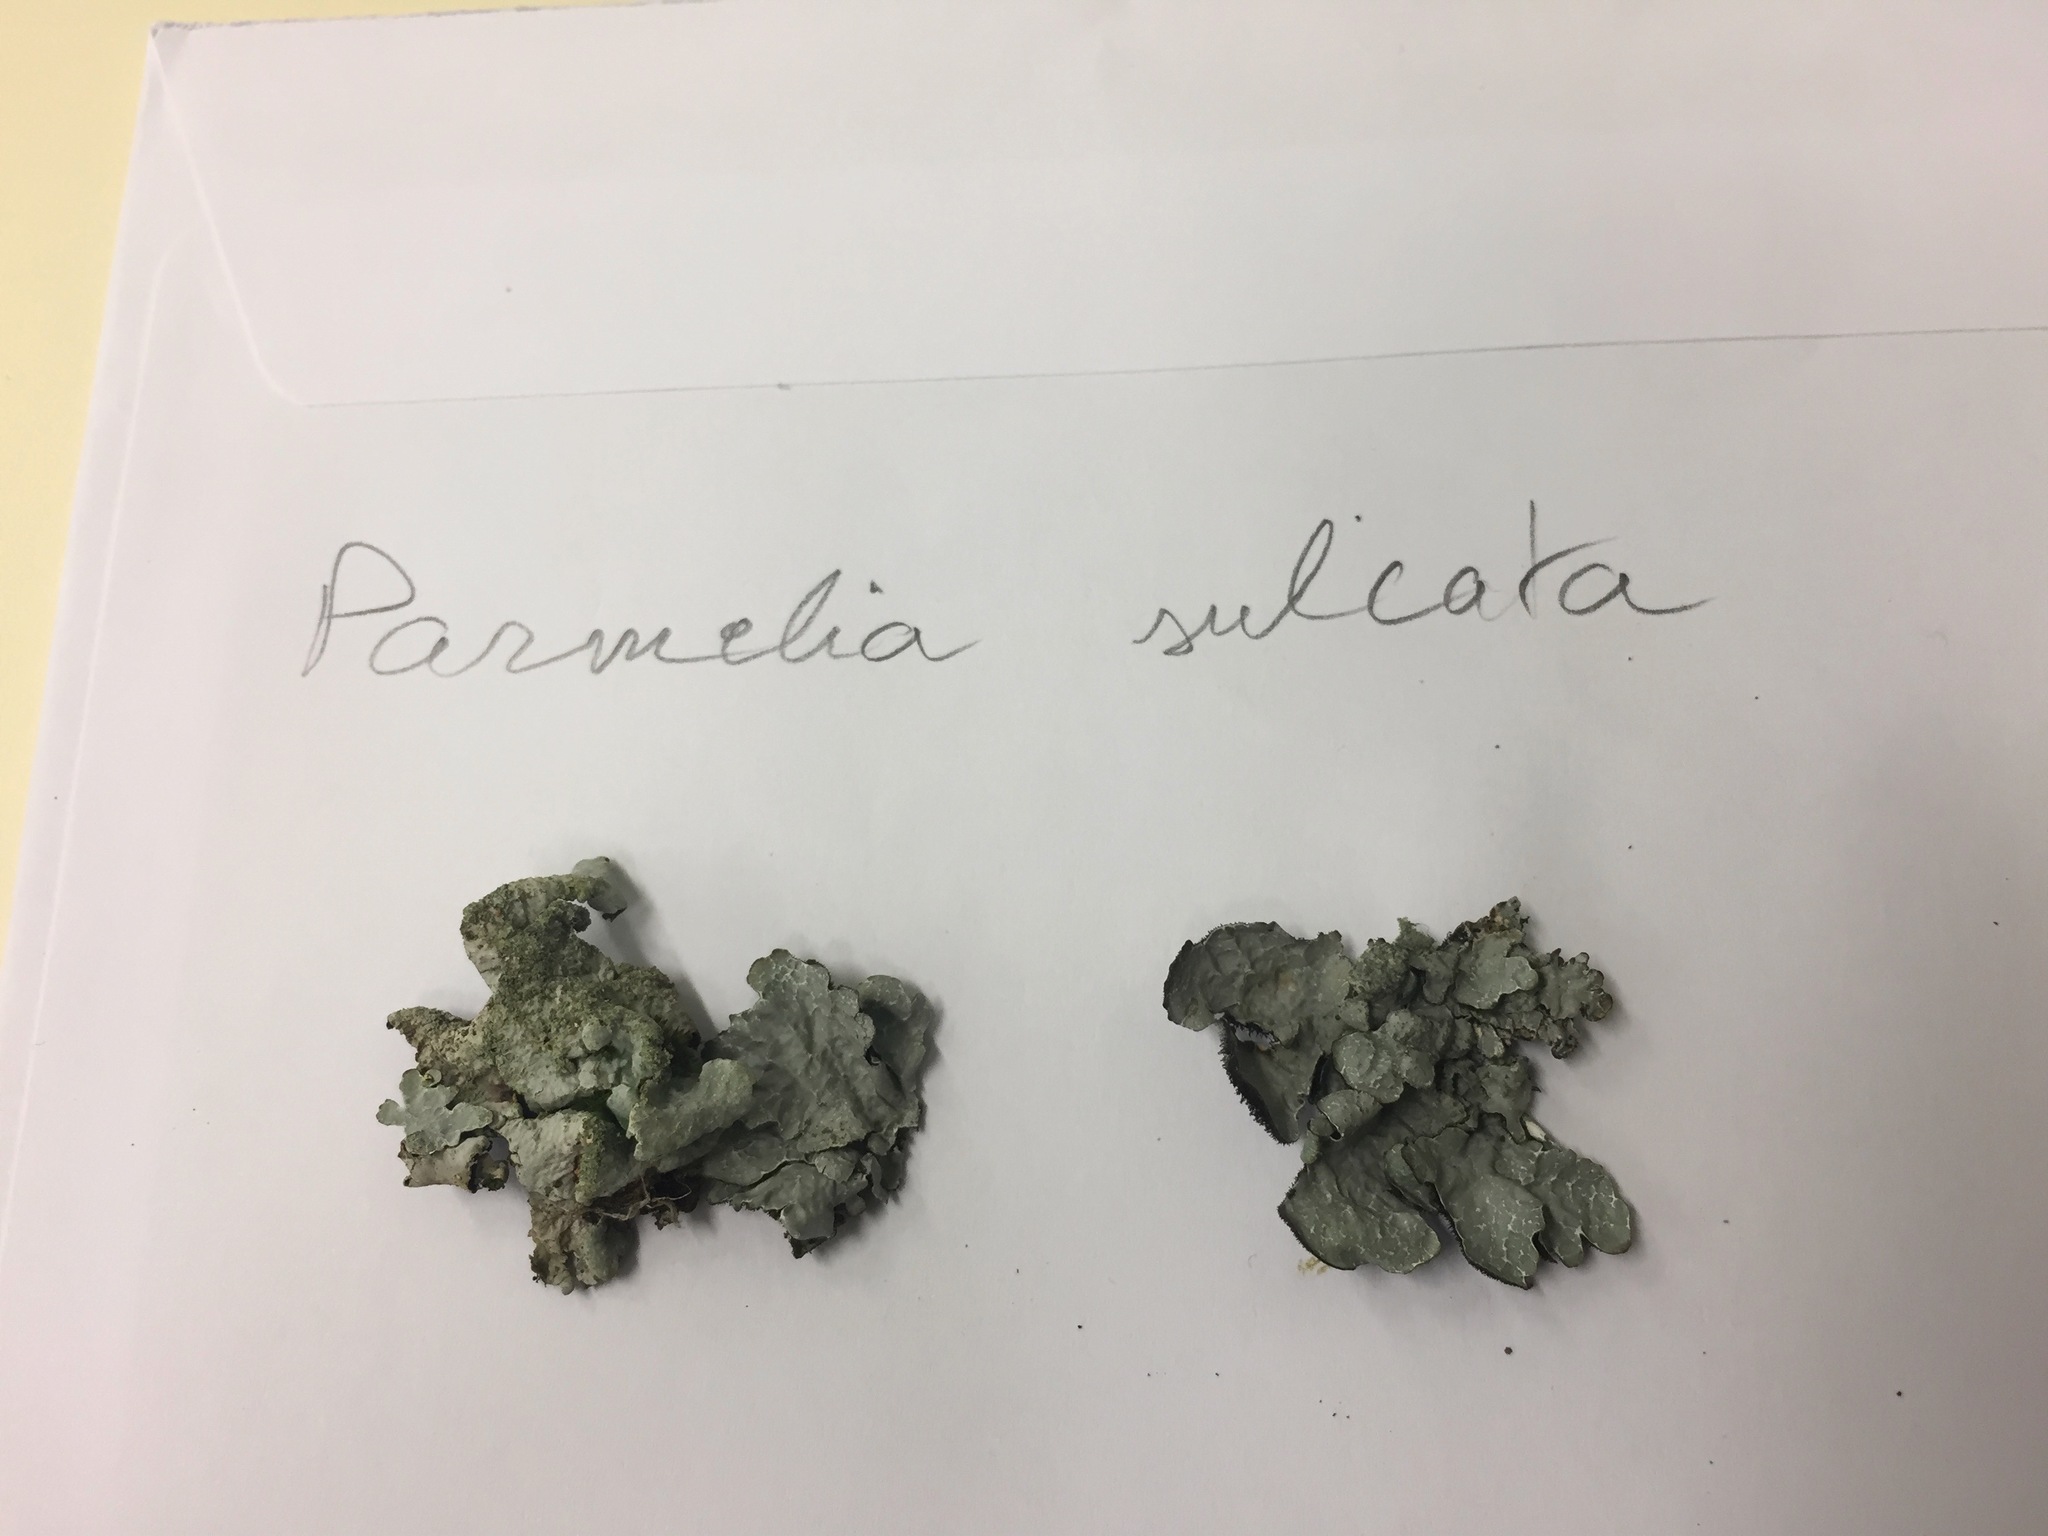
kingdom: Fungi
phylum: Ascomycota
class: Lecanoromycetes
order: Lecanorales
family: Parmeliaceae
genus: Parmelia
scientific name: Parmelia sulcata
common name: Netted shield lichen
